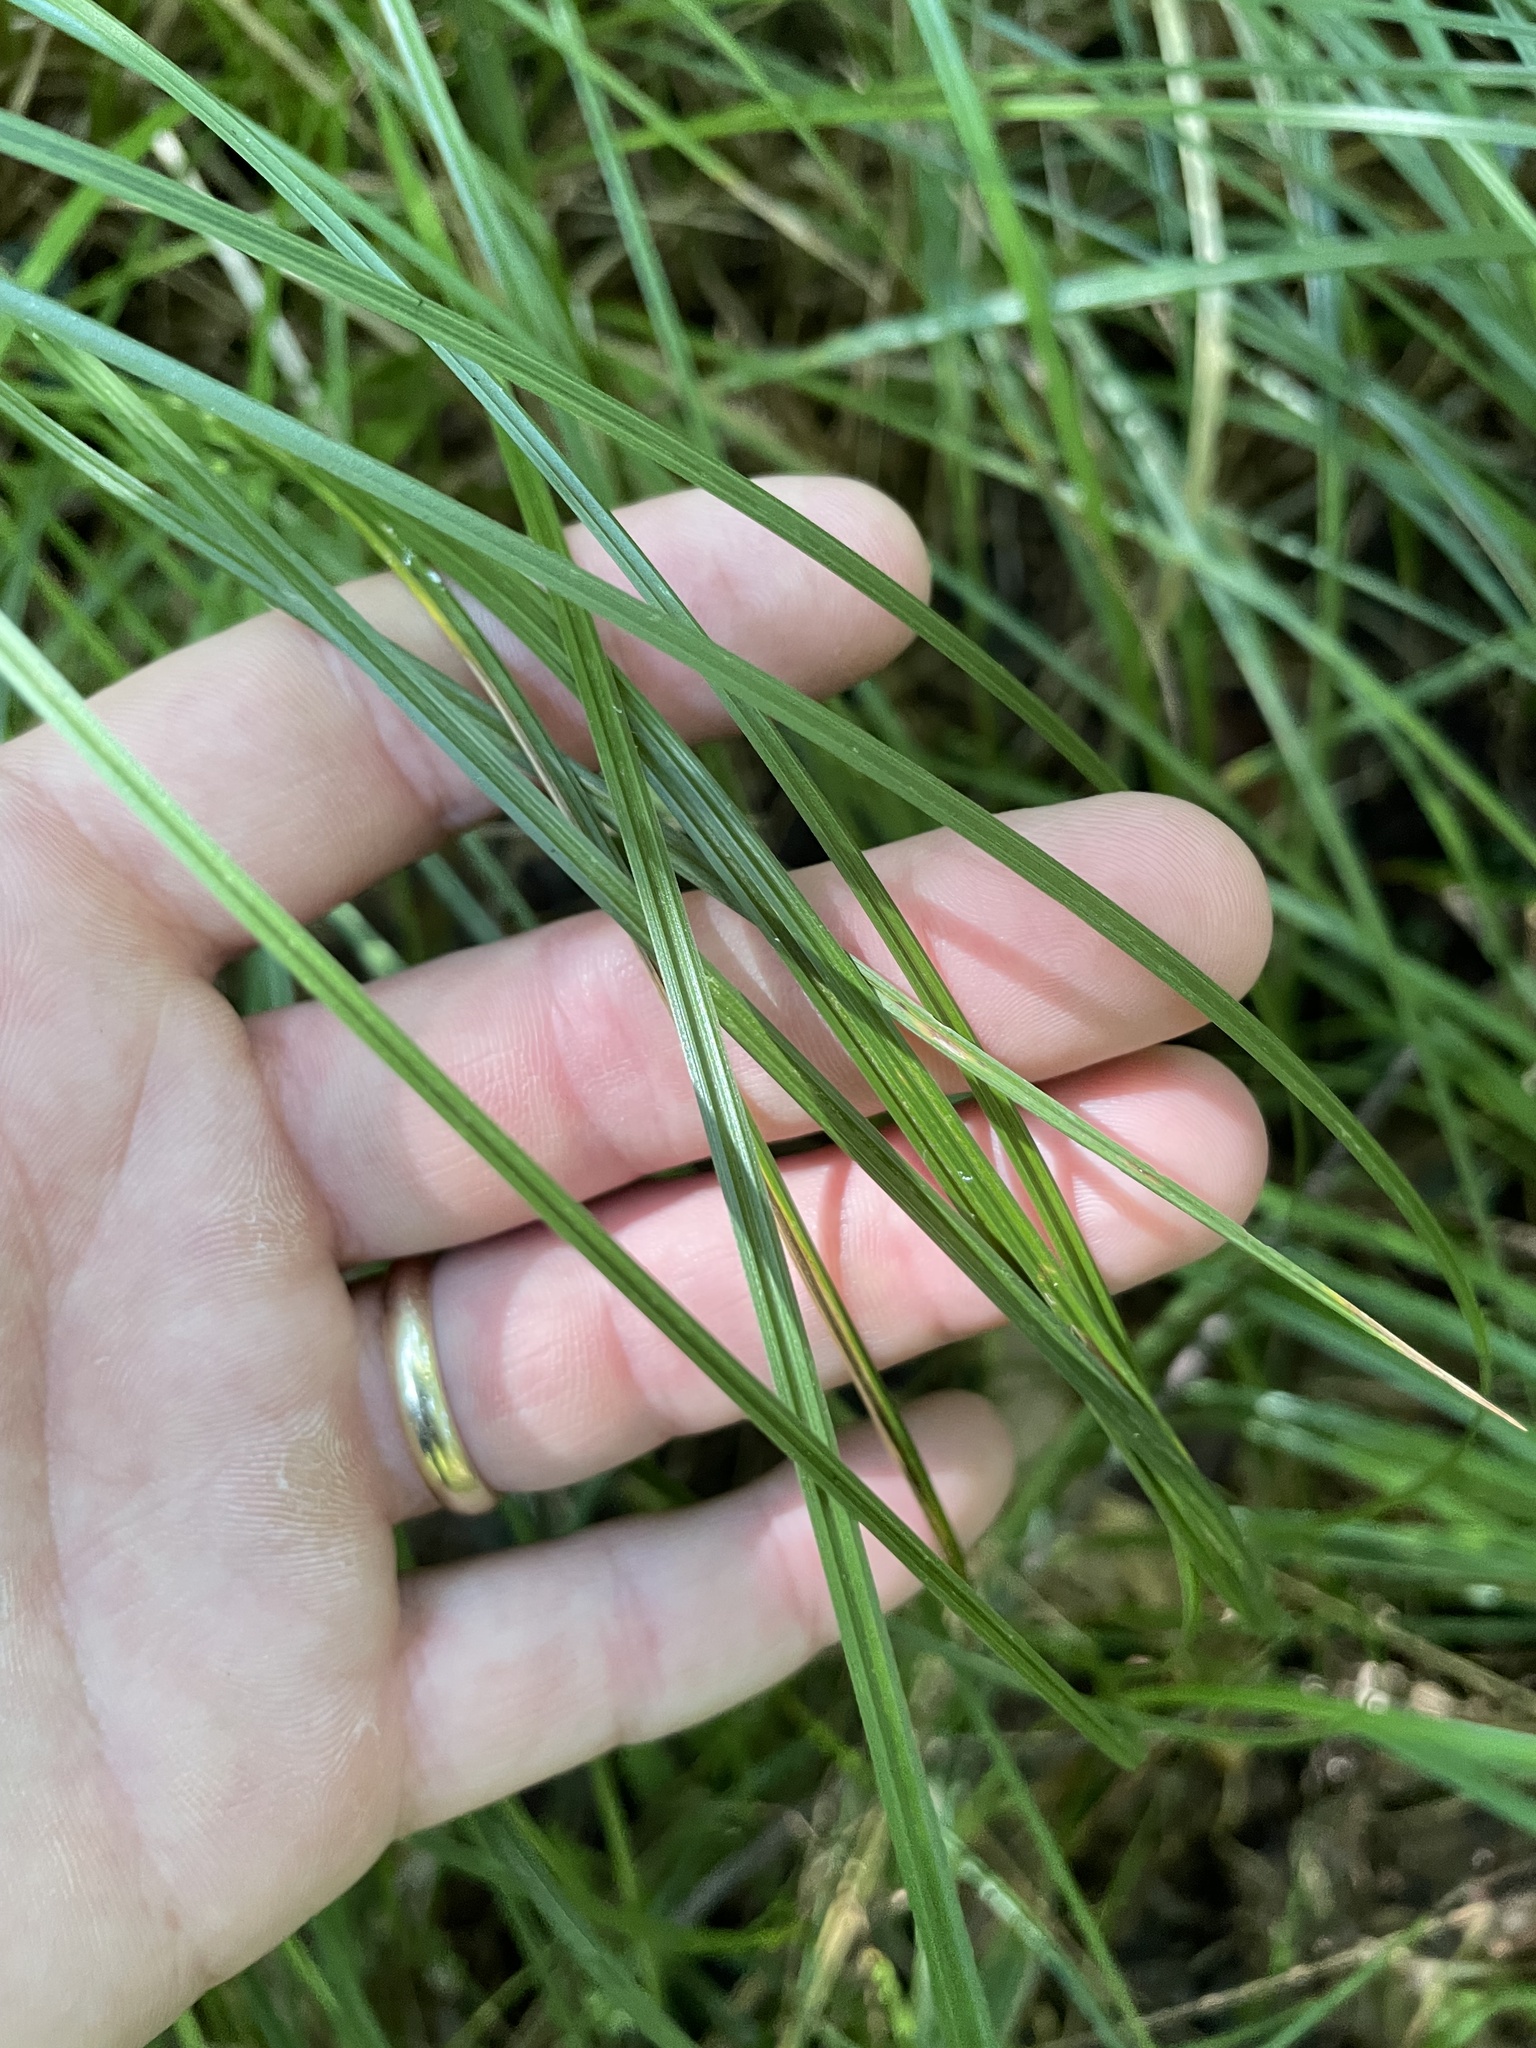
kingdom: Plantae
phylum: Tracheophyta
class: Liliopsida
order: Poales
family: Cyperaceae
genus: Carex
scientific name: Carex intumescens
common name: Greater bladder sedge
